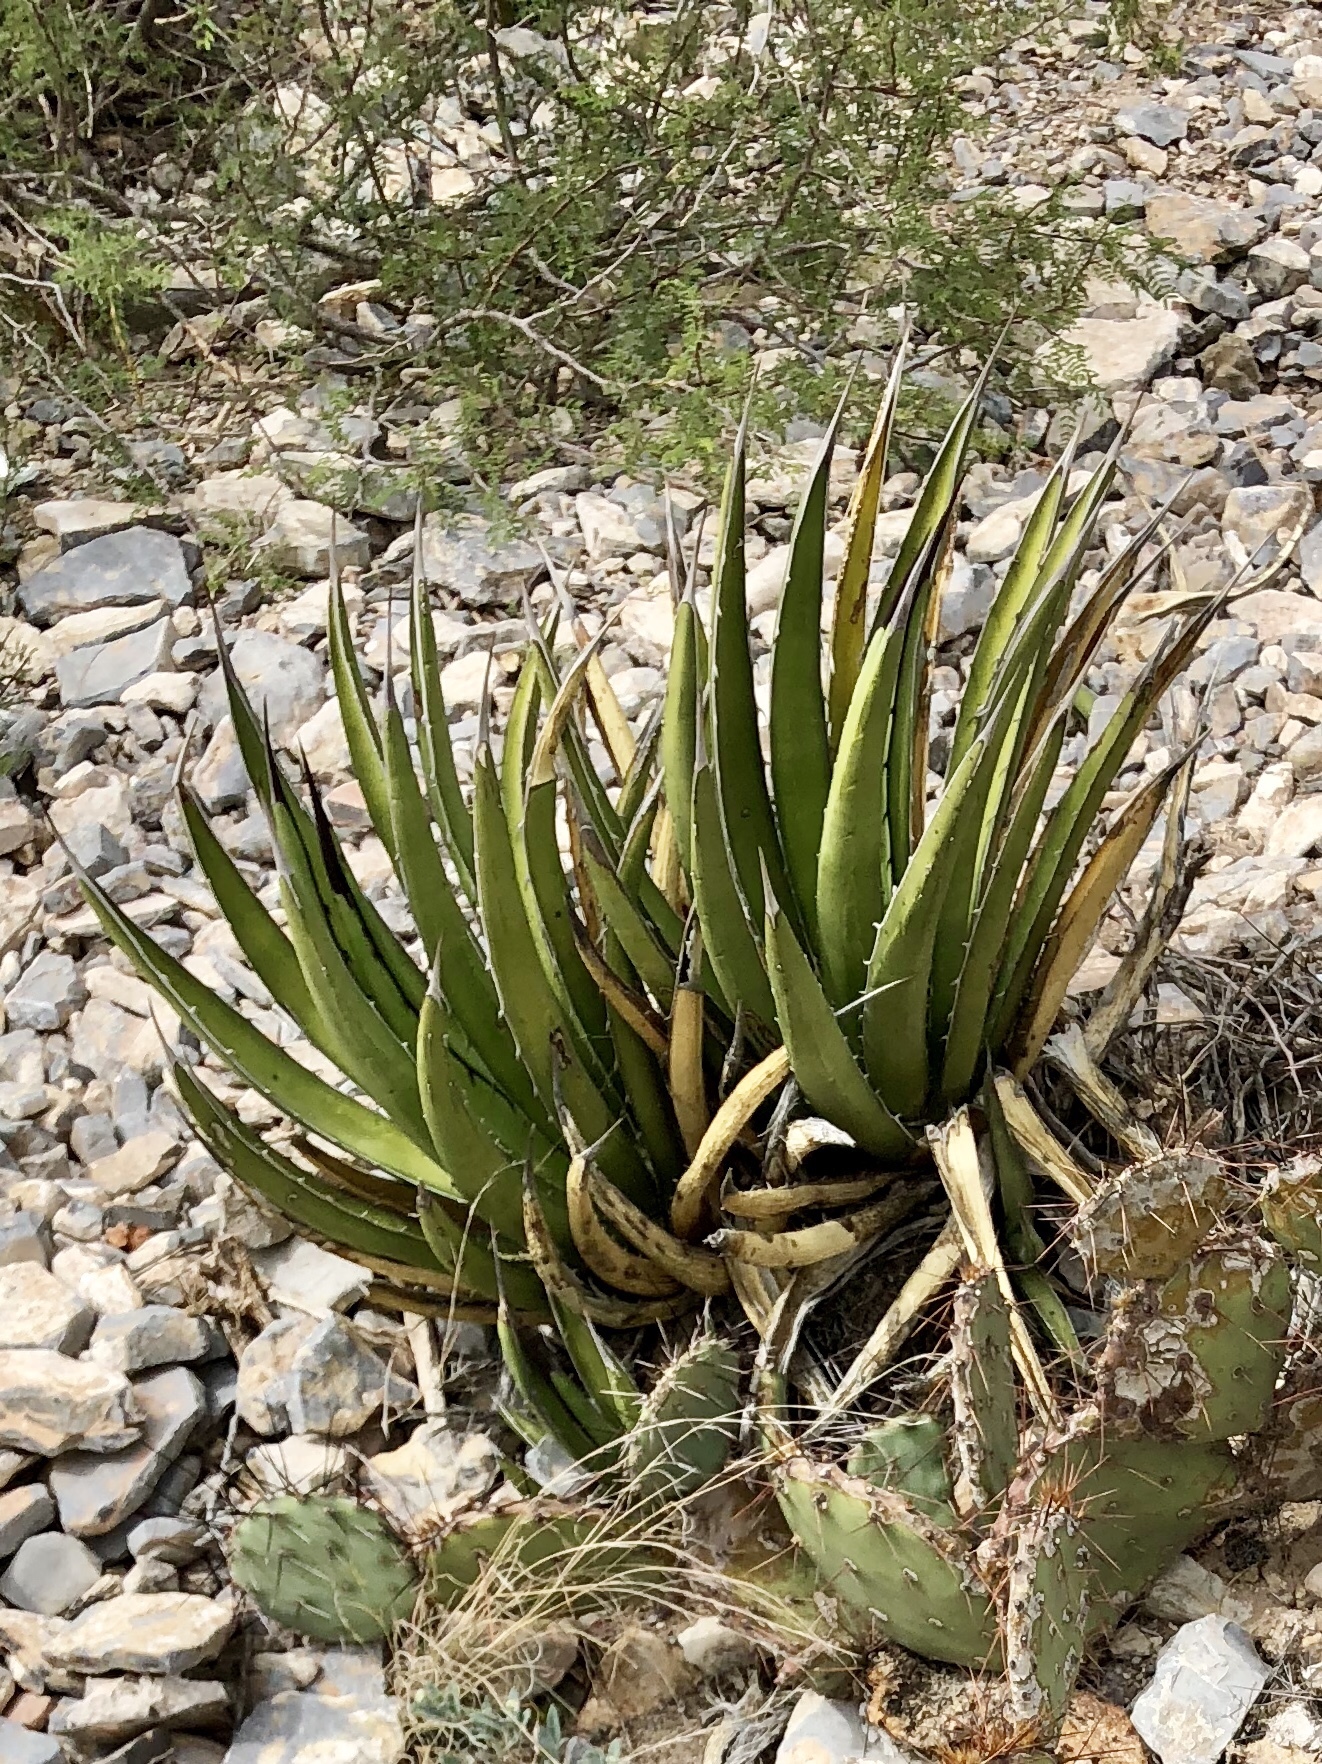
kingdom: Plantae
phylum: Tracheophyta
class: Liliopsida
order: Asparagales
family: Asparagaceae
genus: Agave
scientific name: Agave lechuguilla
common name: Lecheguilla agave
